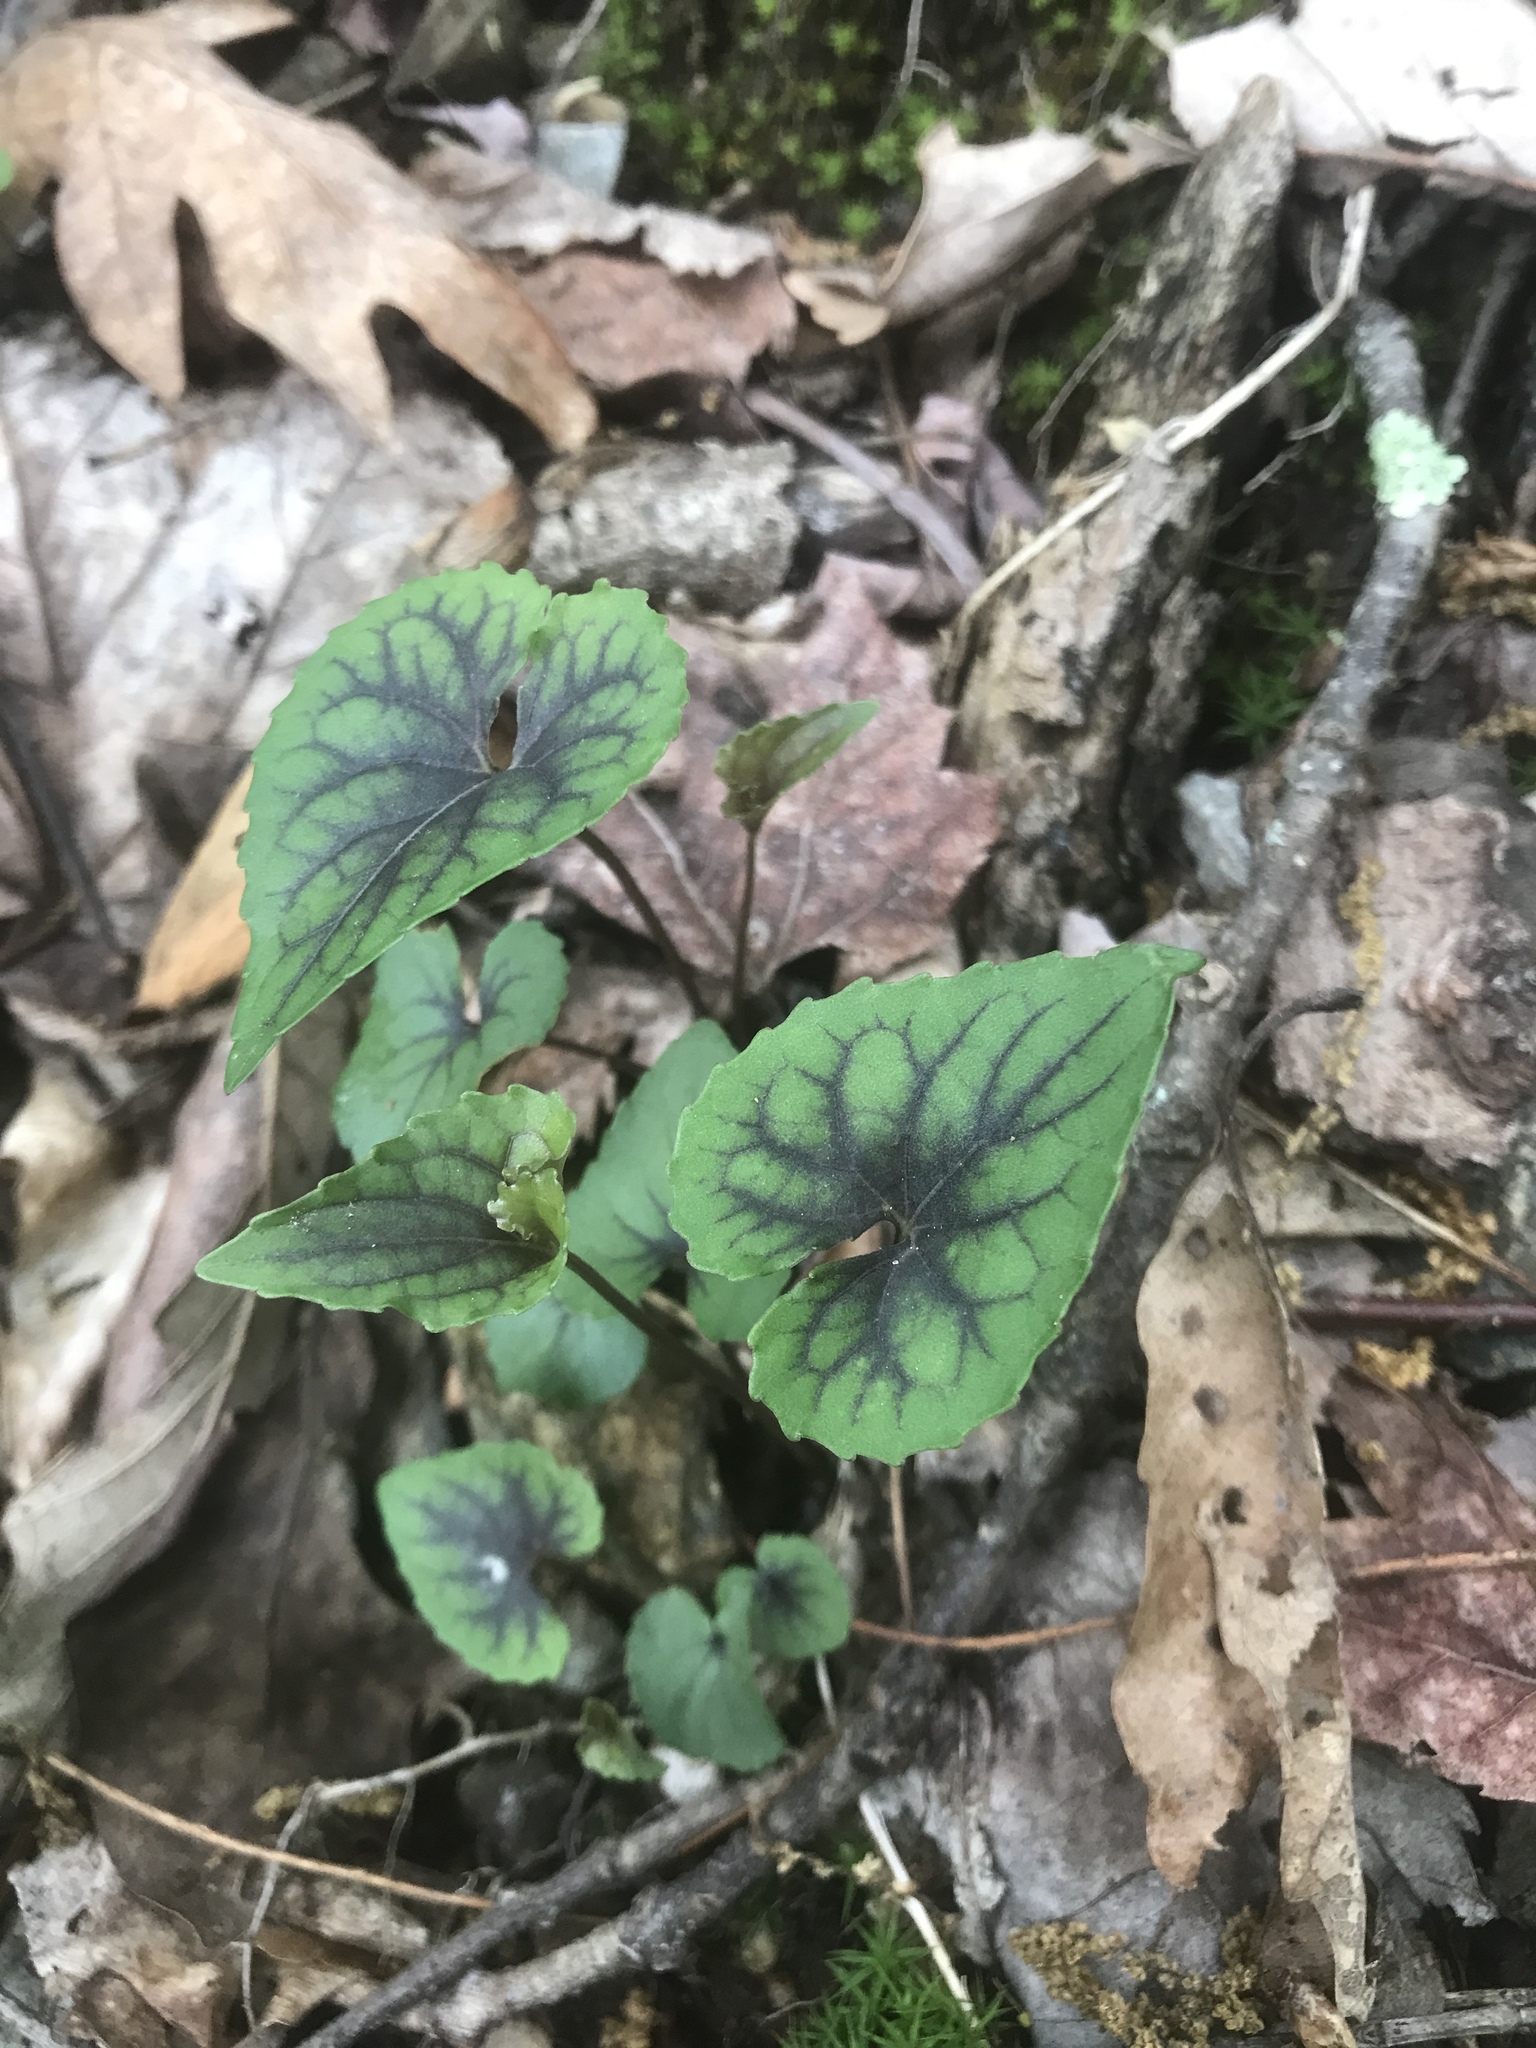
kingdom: Plantae
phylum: Tracheophyta
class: Magnoliopsida
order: Malpighiales
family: Violaceae
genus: Viola
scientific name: Viola hirsutula
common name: Southern wood violet
